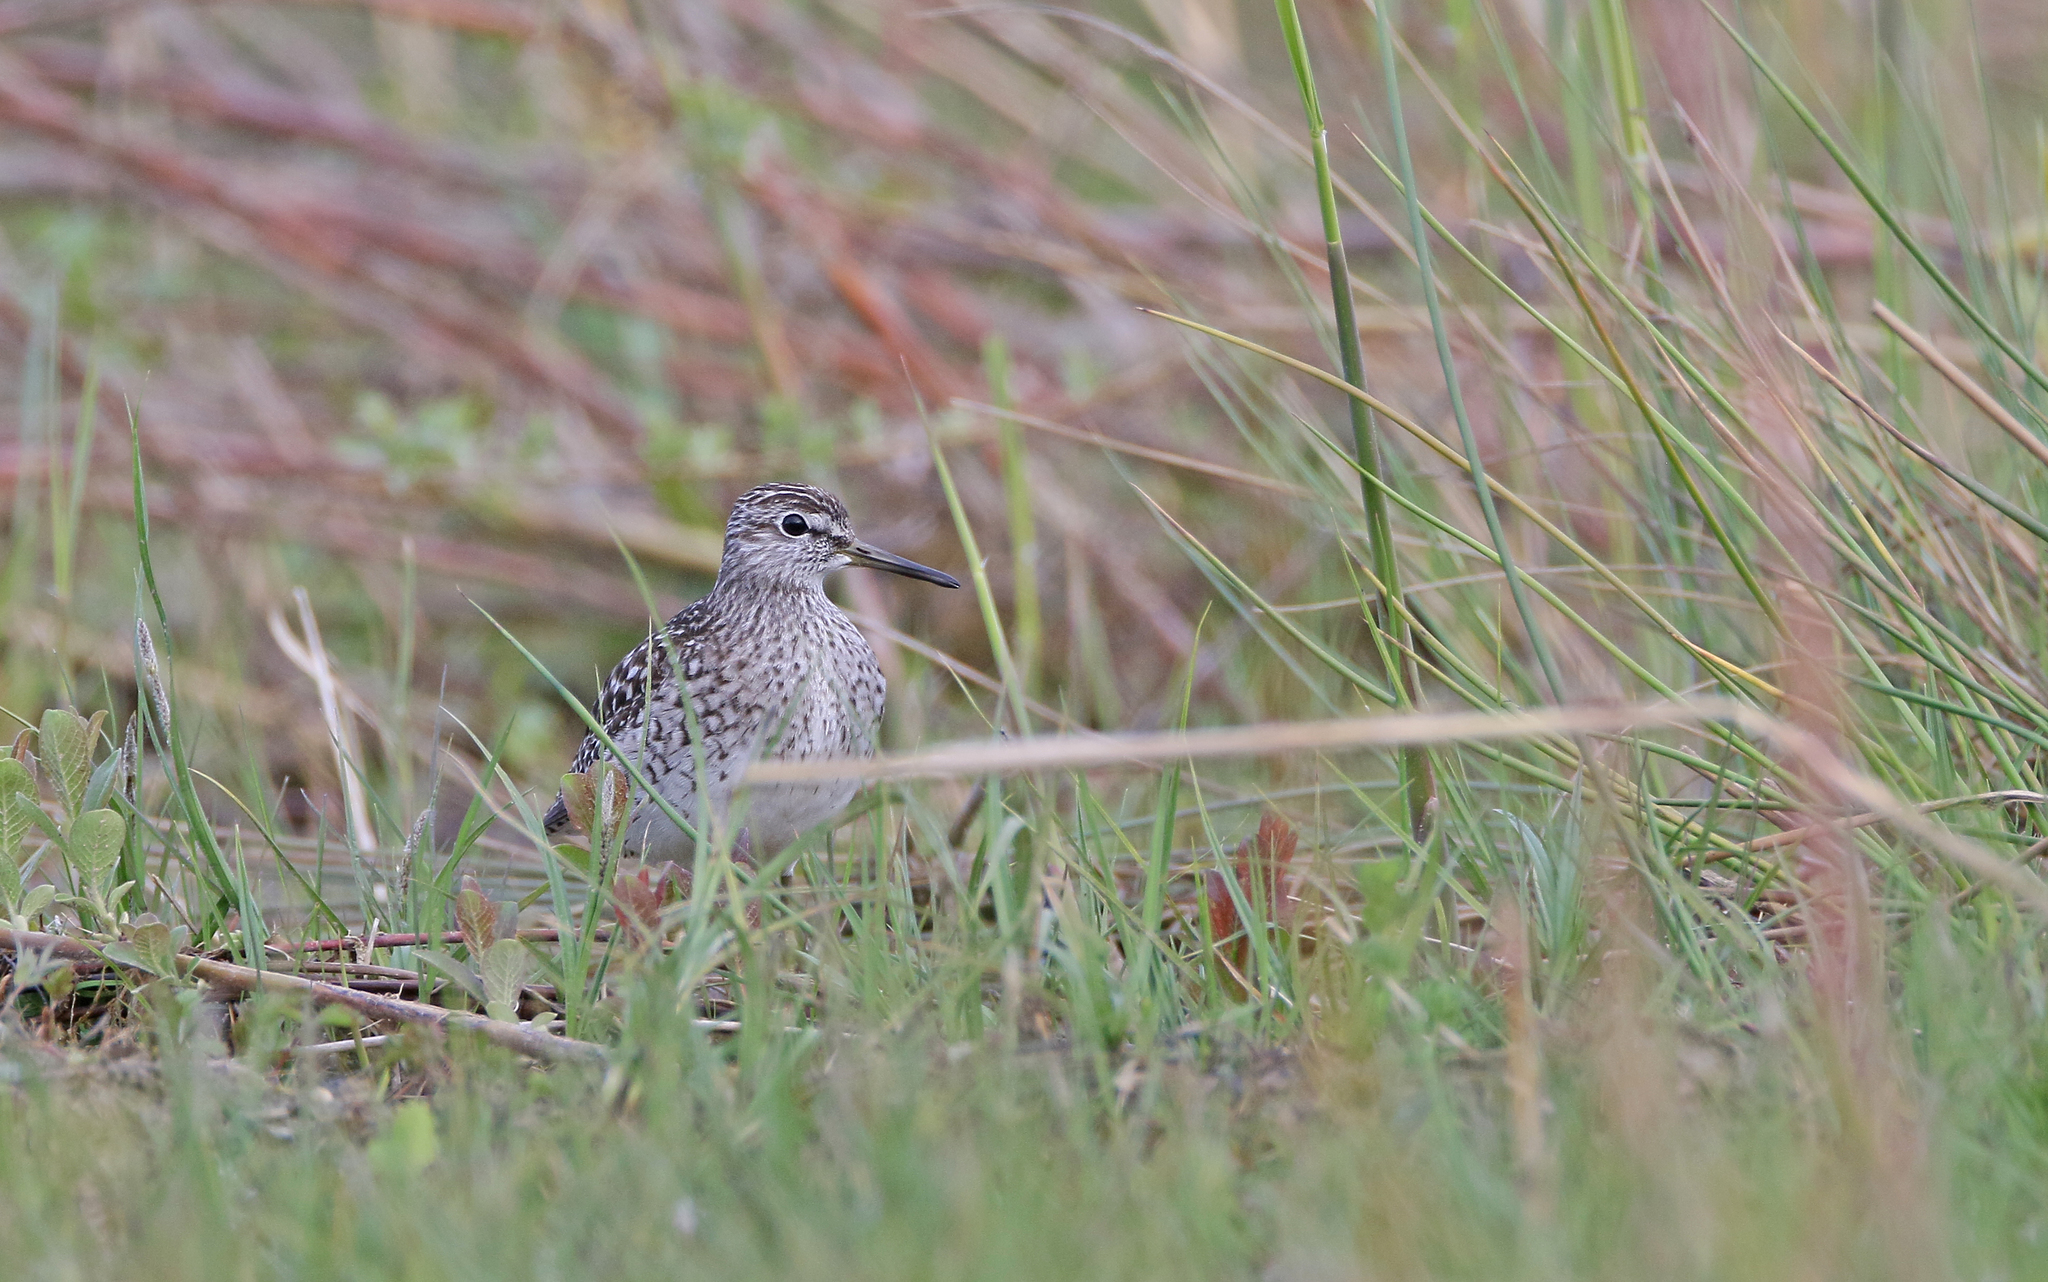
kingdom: Animalia
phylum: Chordata
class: Aves
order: Charadriiformes
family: Scolopacidae
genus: Tringa
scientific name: Tringa glareola
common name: Wood sandpiper
